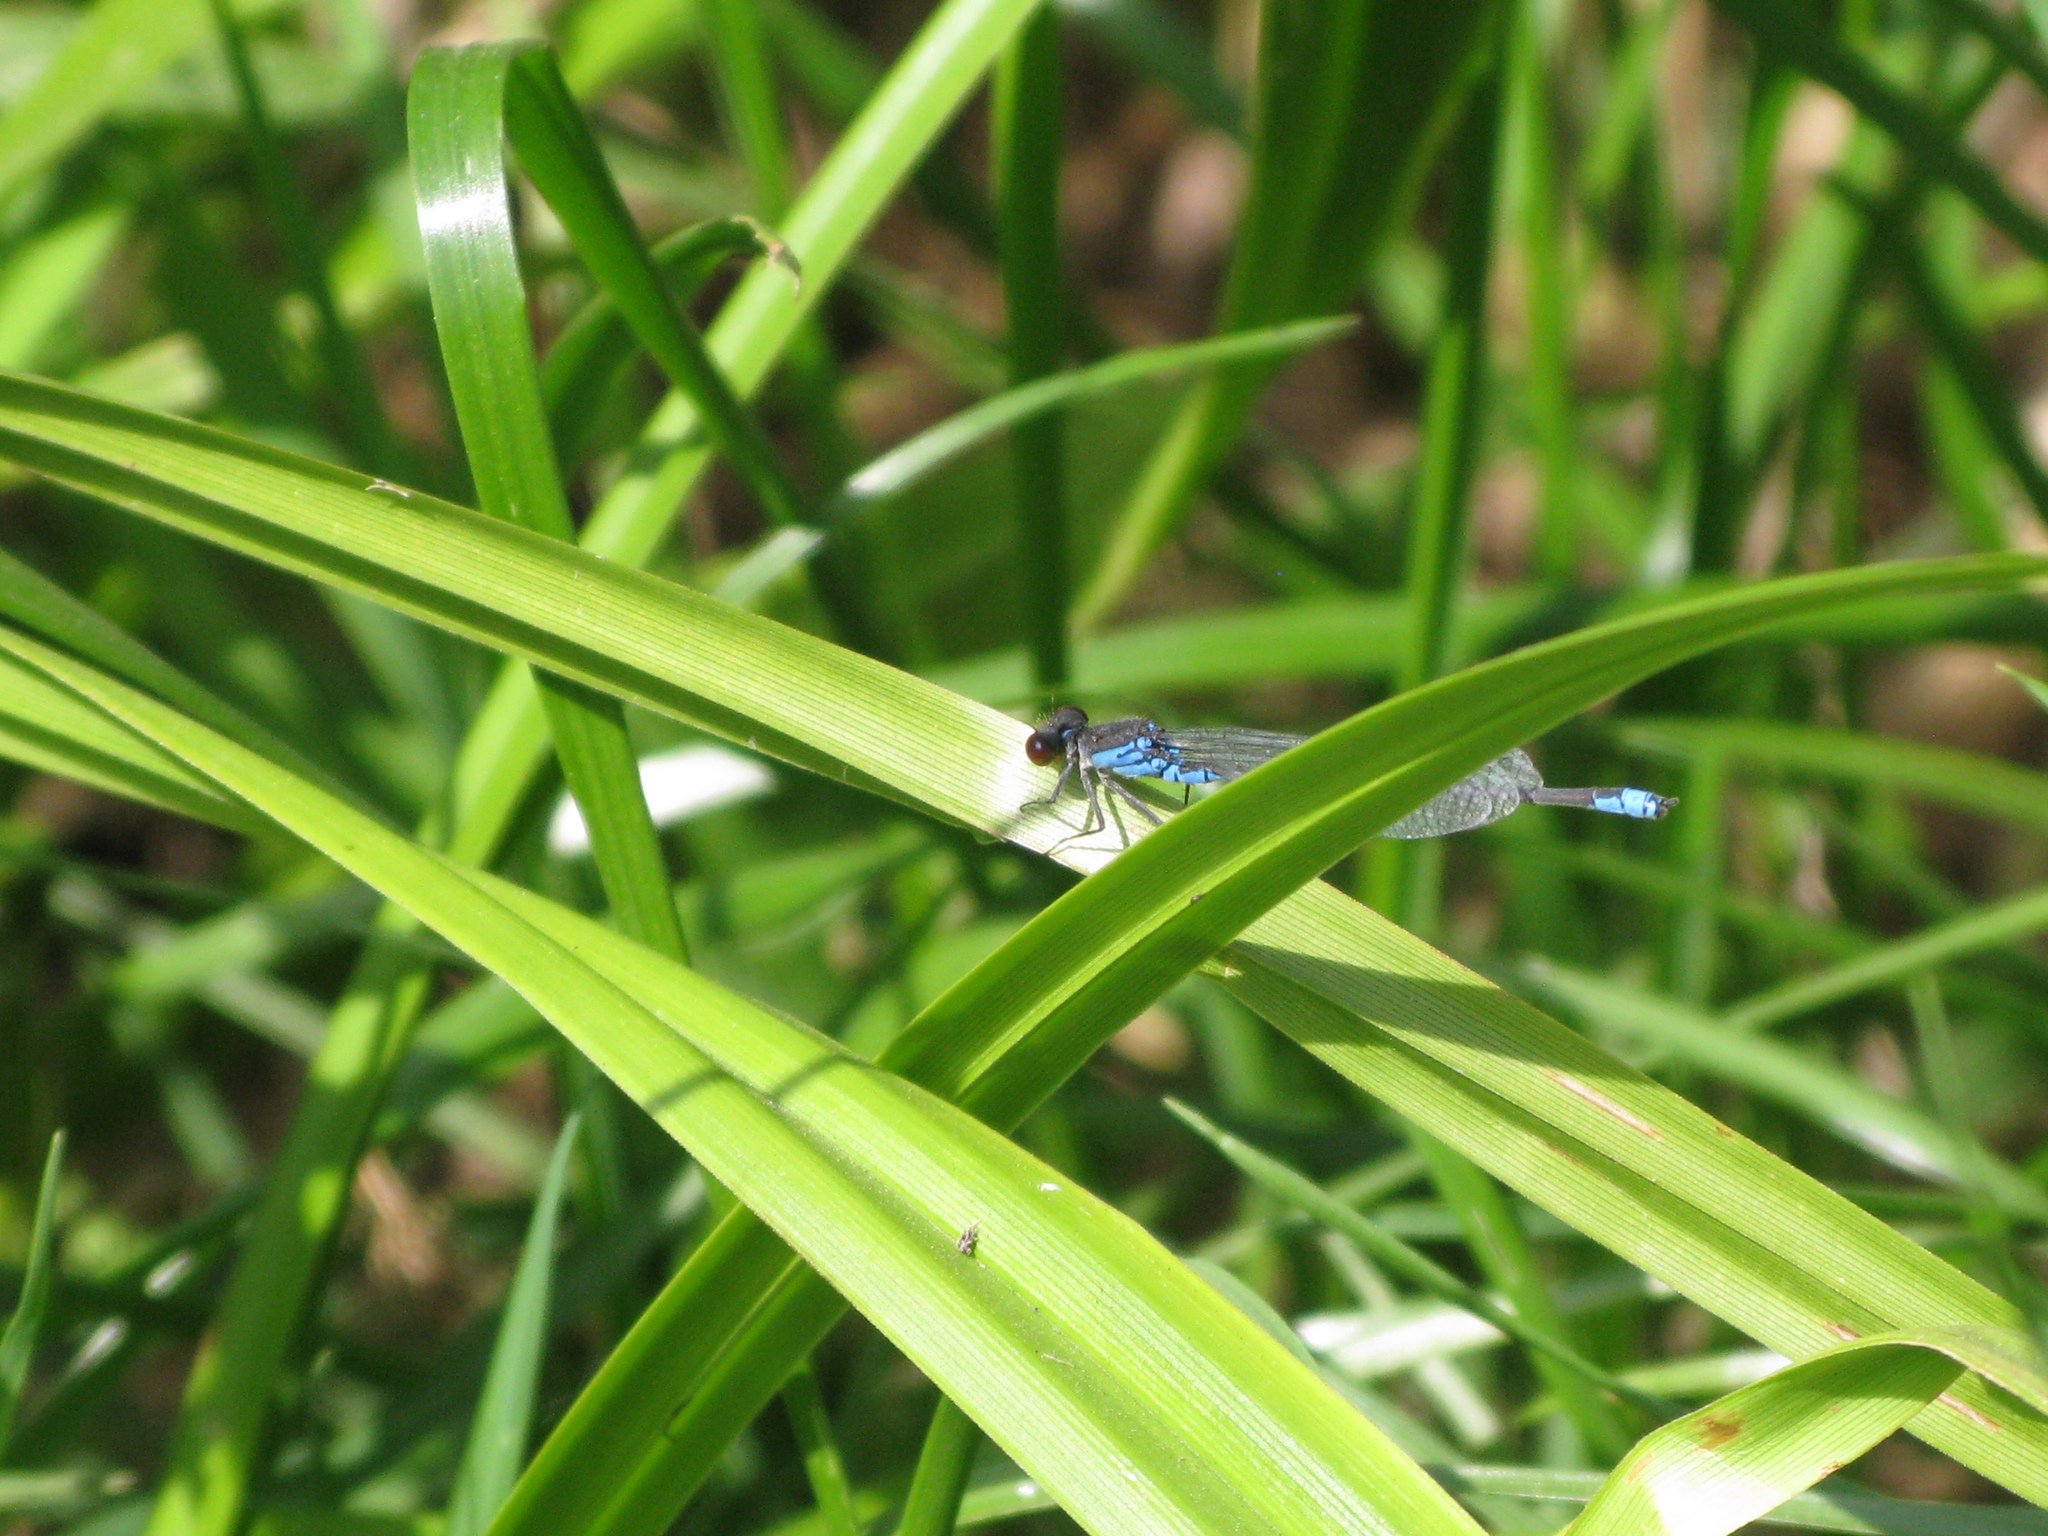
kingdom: Animalia
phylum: Arthropoda
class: Insecta
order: Odonata
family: Coenagrionidae
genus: Erythromma
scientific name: Erythromma viridulum
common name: Small red-eyed damselfly
